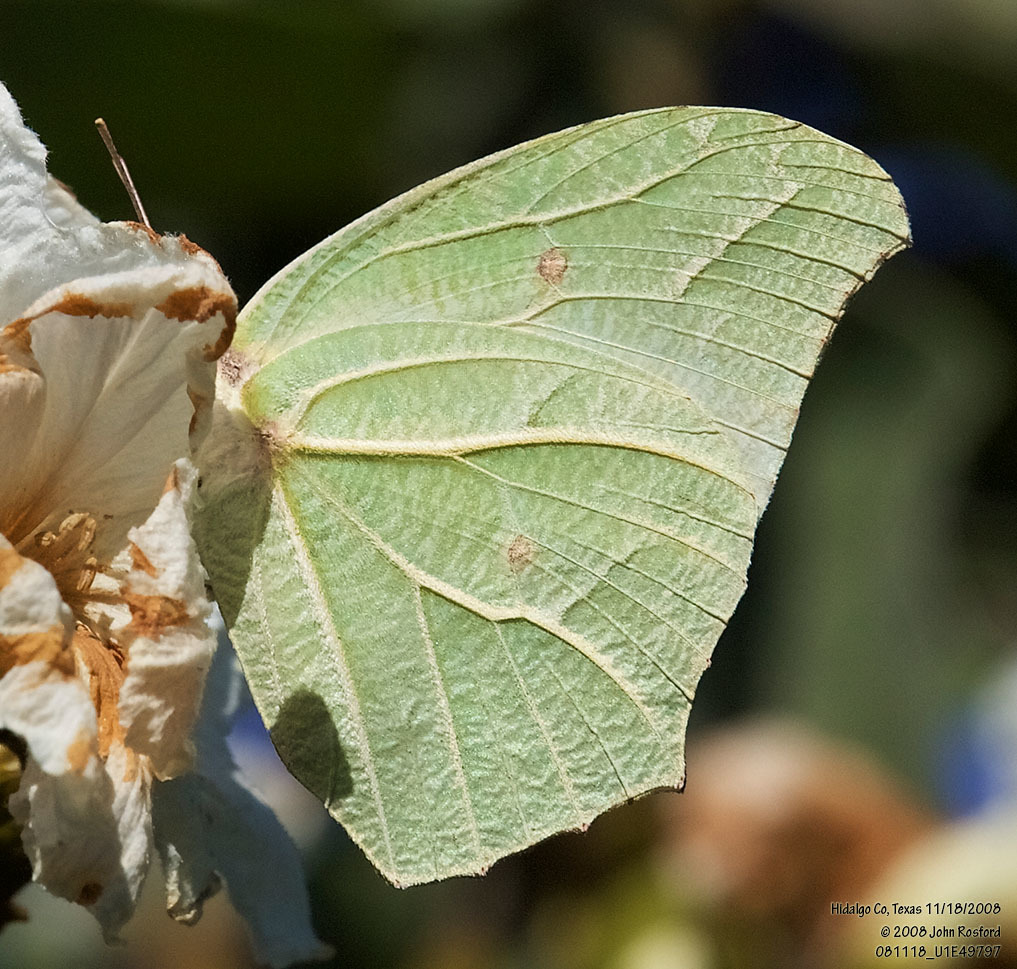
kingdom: Animalia
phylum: Arthropoda
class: Insecta
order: Lepidoptera
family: Pieridae
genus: Anteos
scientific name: Anteos clorinde
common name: White angled sulphur
